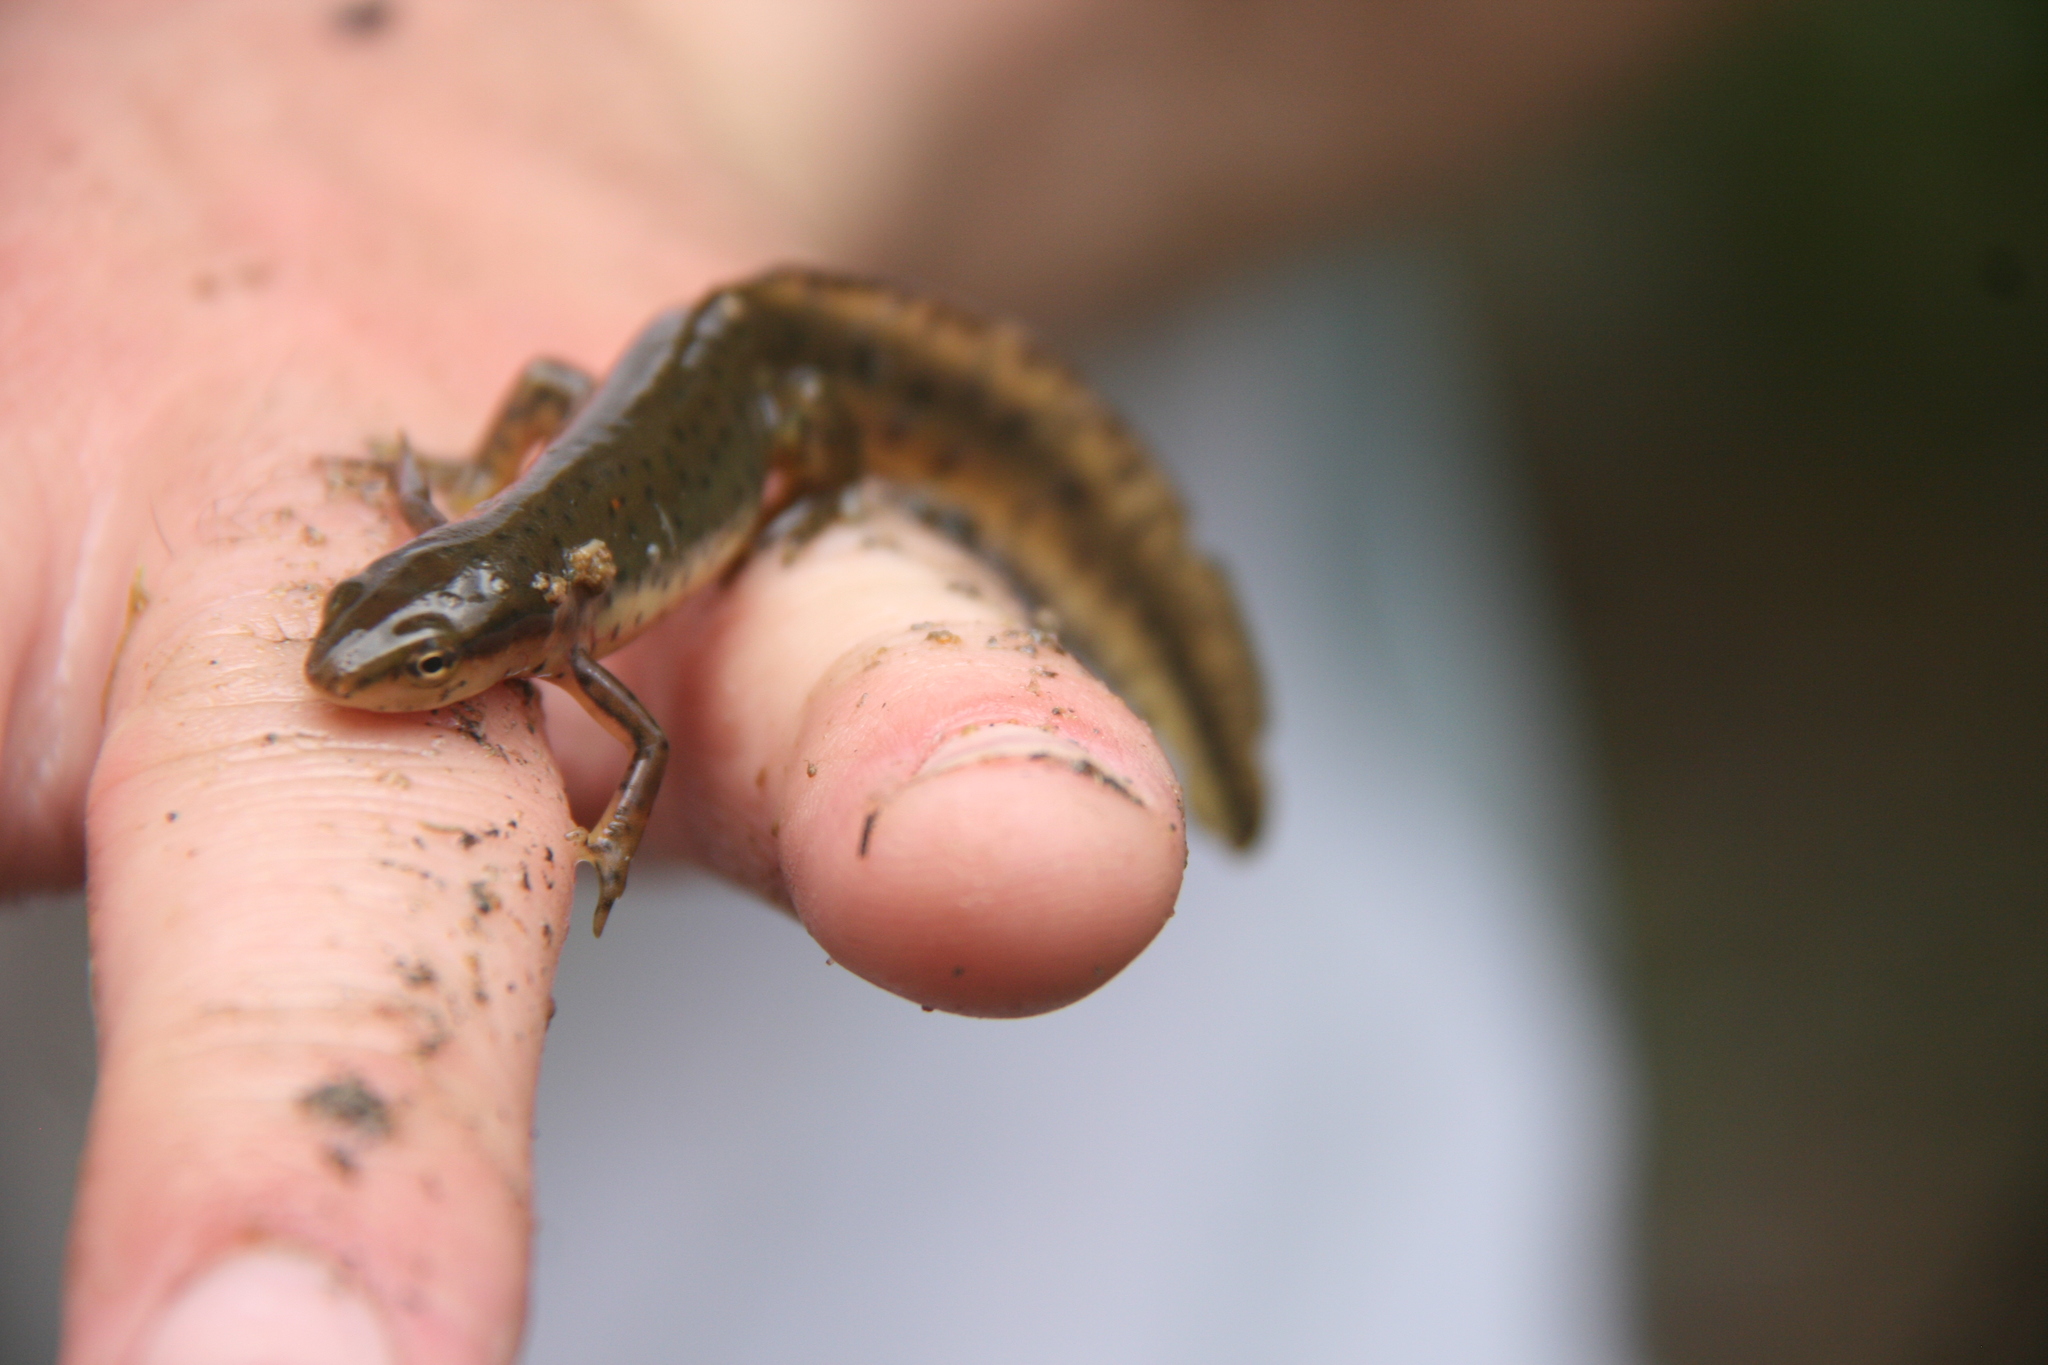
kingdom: Animalia
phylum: Chordata
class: Amphibia
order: Caudata
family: Salamandridae
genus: Notophthalmus
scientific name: Notophthalmus viridescens
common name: Eastern newt
